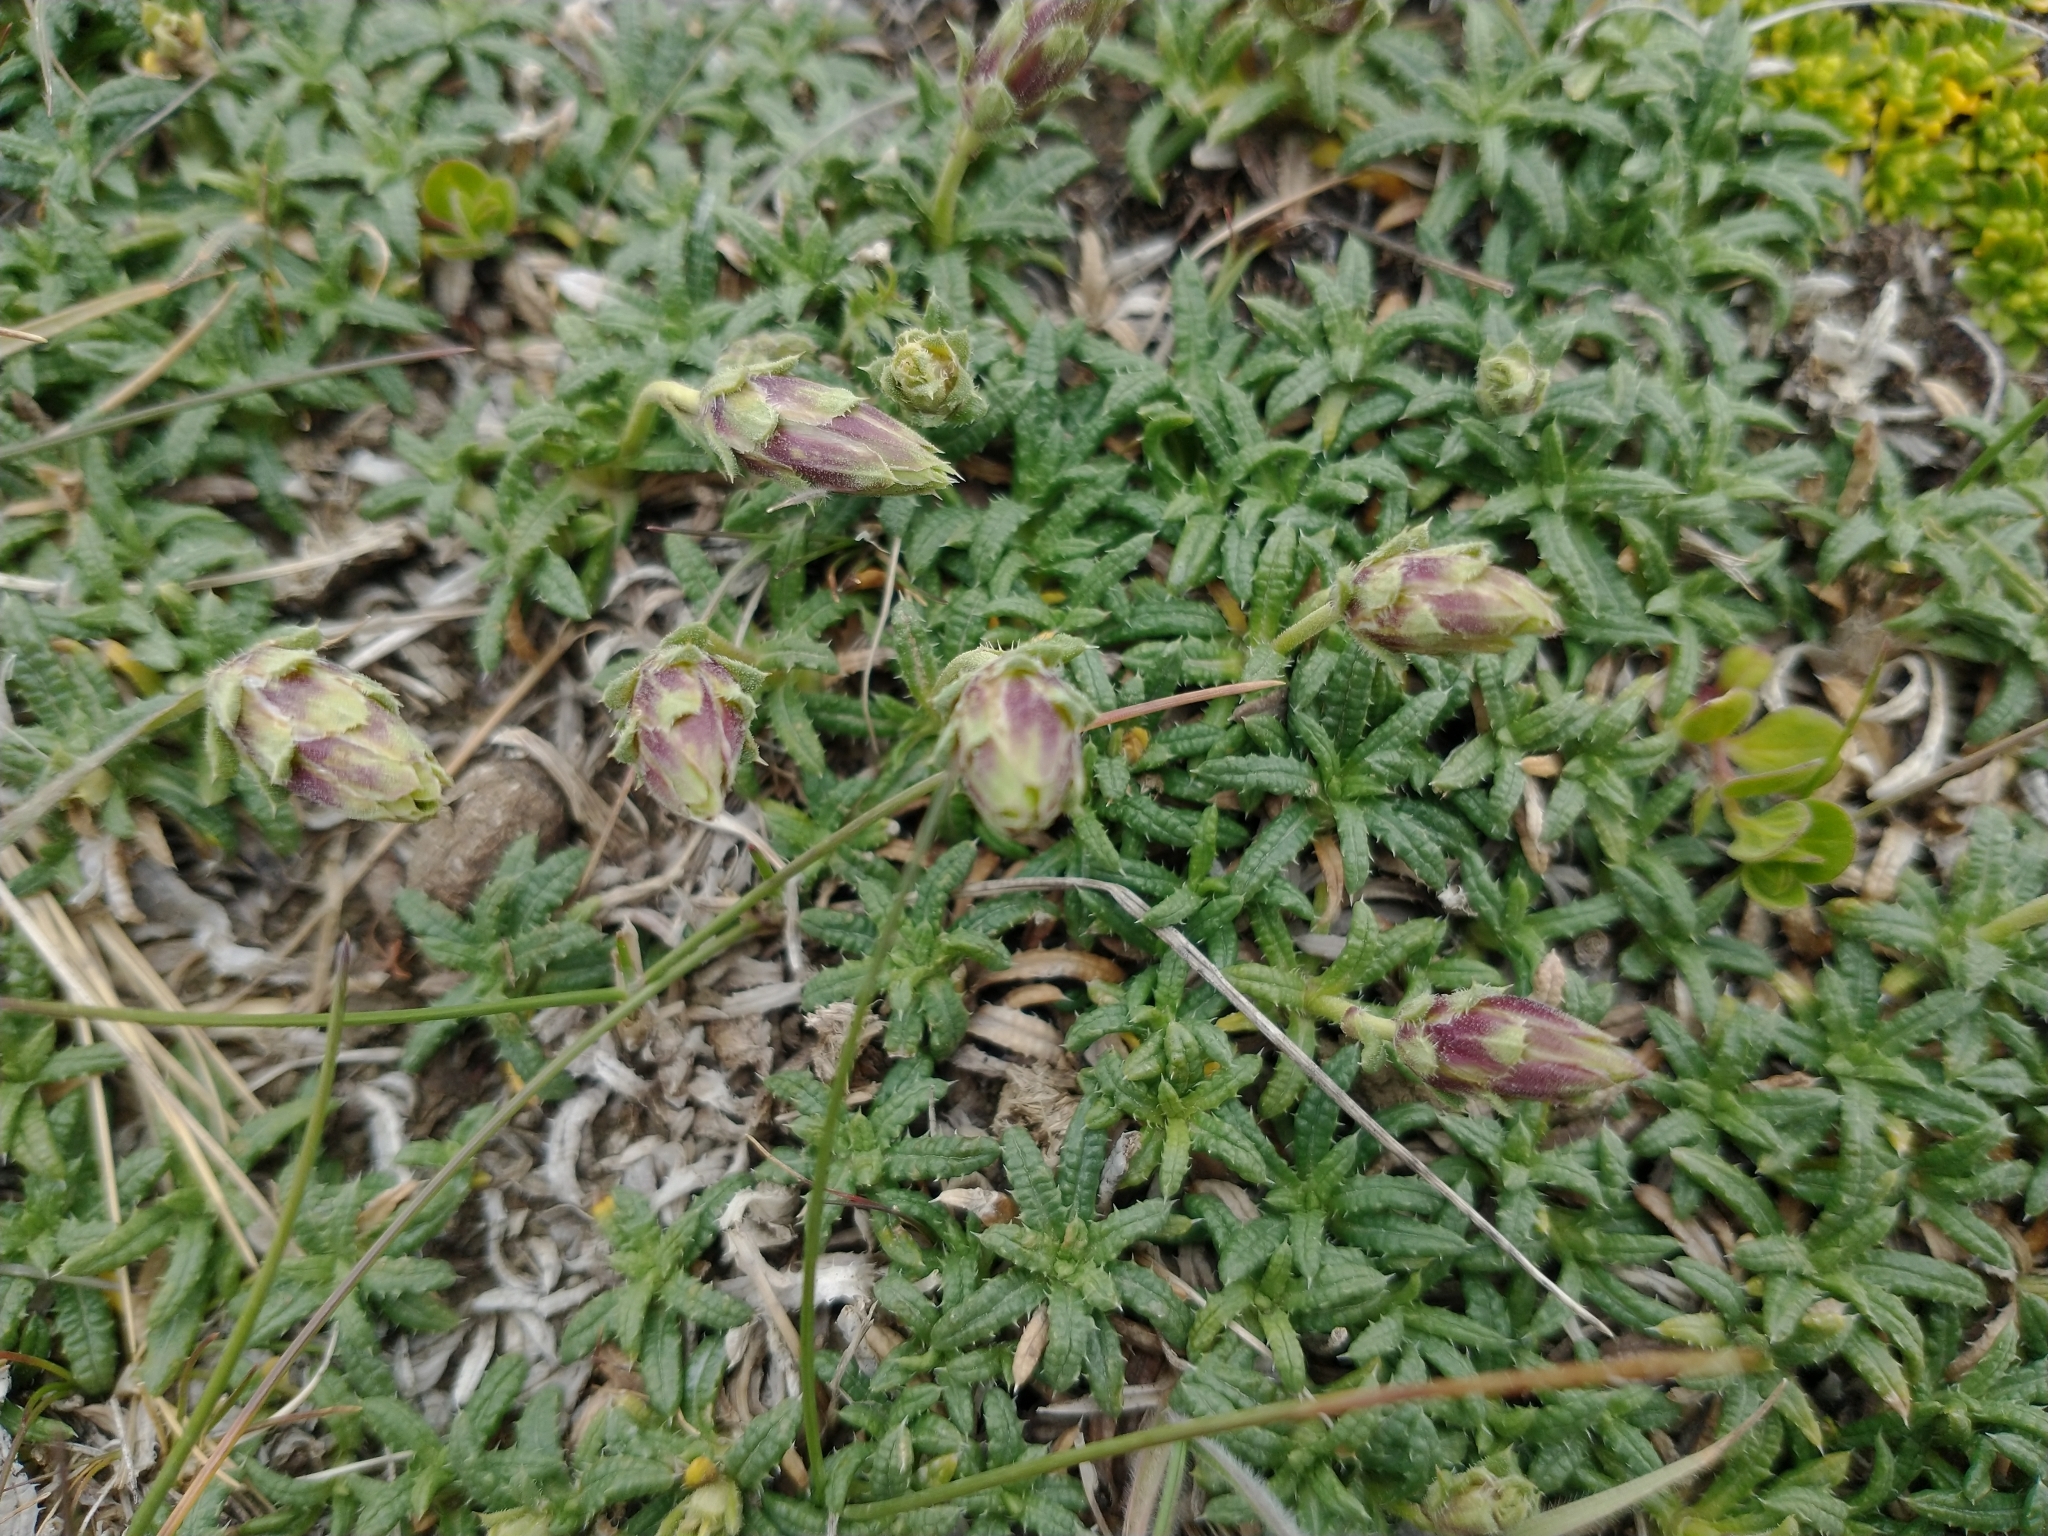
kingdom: Plantae
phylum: Tracheophyta
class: Magnoliopsida
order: Asterales
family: Asteraceae
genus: Perezia
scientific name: Perezia recurvata
